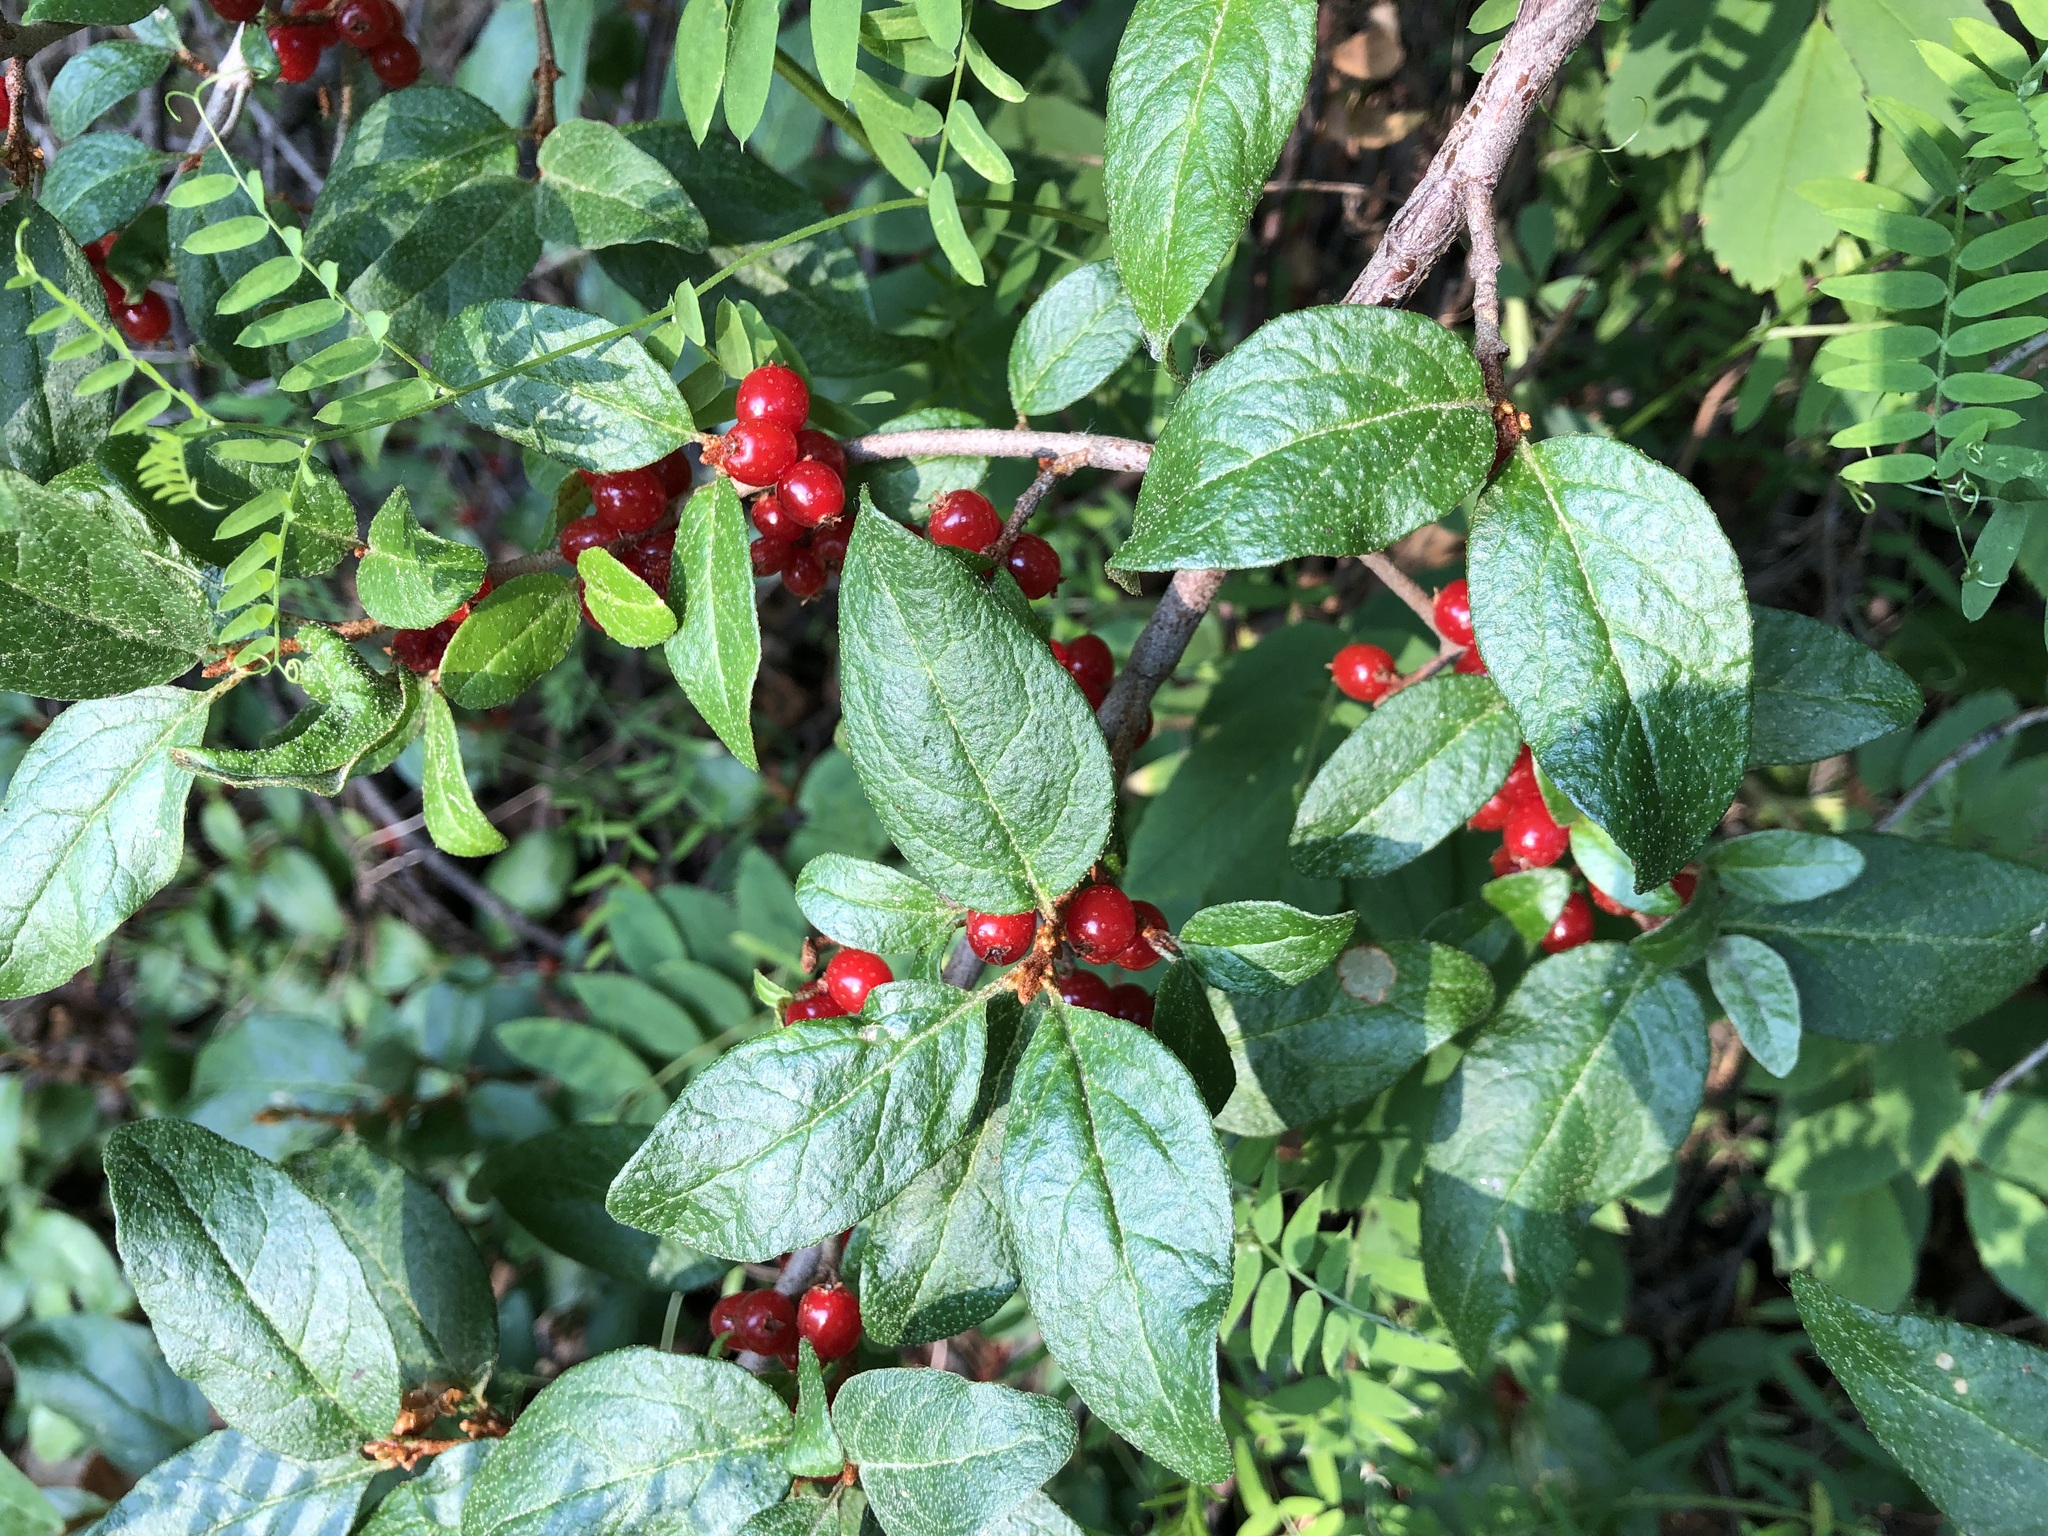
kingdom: Plantae
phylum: Tracheophyta
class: Magnoliopsida
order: Rosales
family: Elaeagnaceae
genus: Shepherdia
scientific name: Shepherdia canadensis
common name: Soapberry
